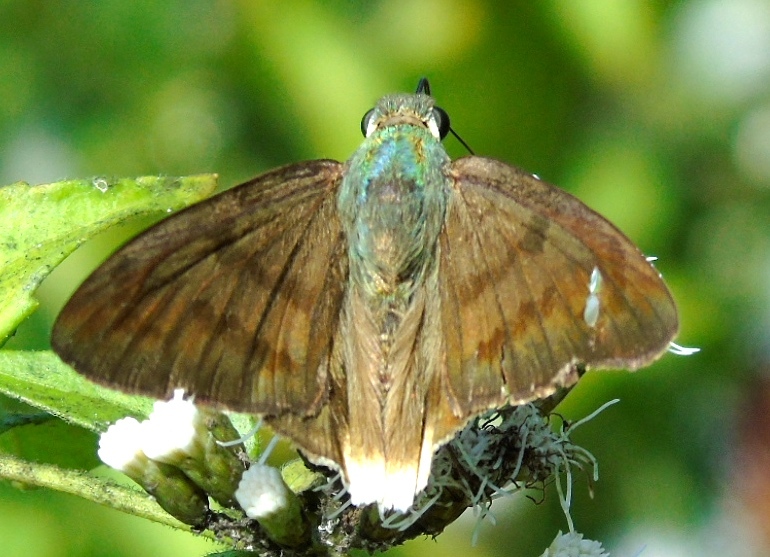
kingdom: Animalia
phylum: Arthropoda
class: Insecta
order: Lepidoptera
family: Hesperiidae
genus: Astraptes
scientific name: Astraptes anaphus
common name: Yellow-tipped flasher
